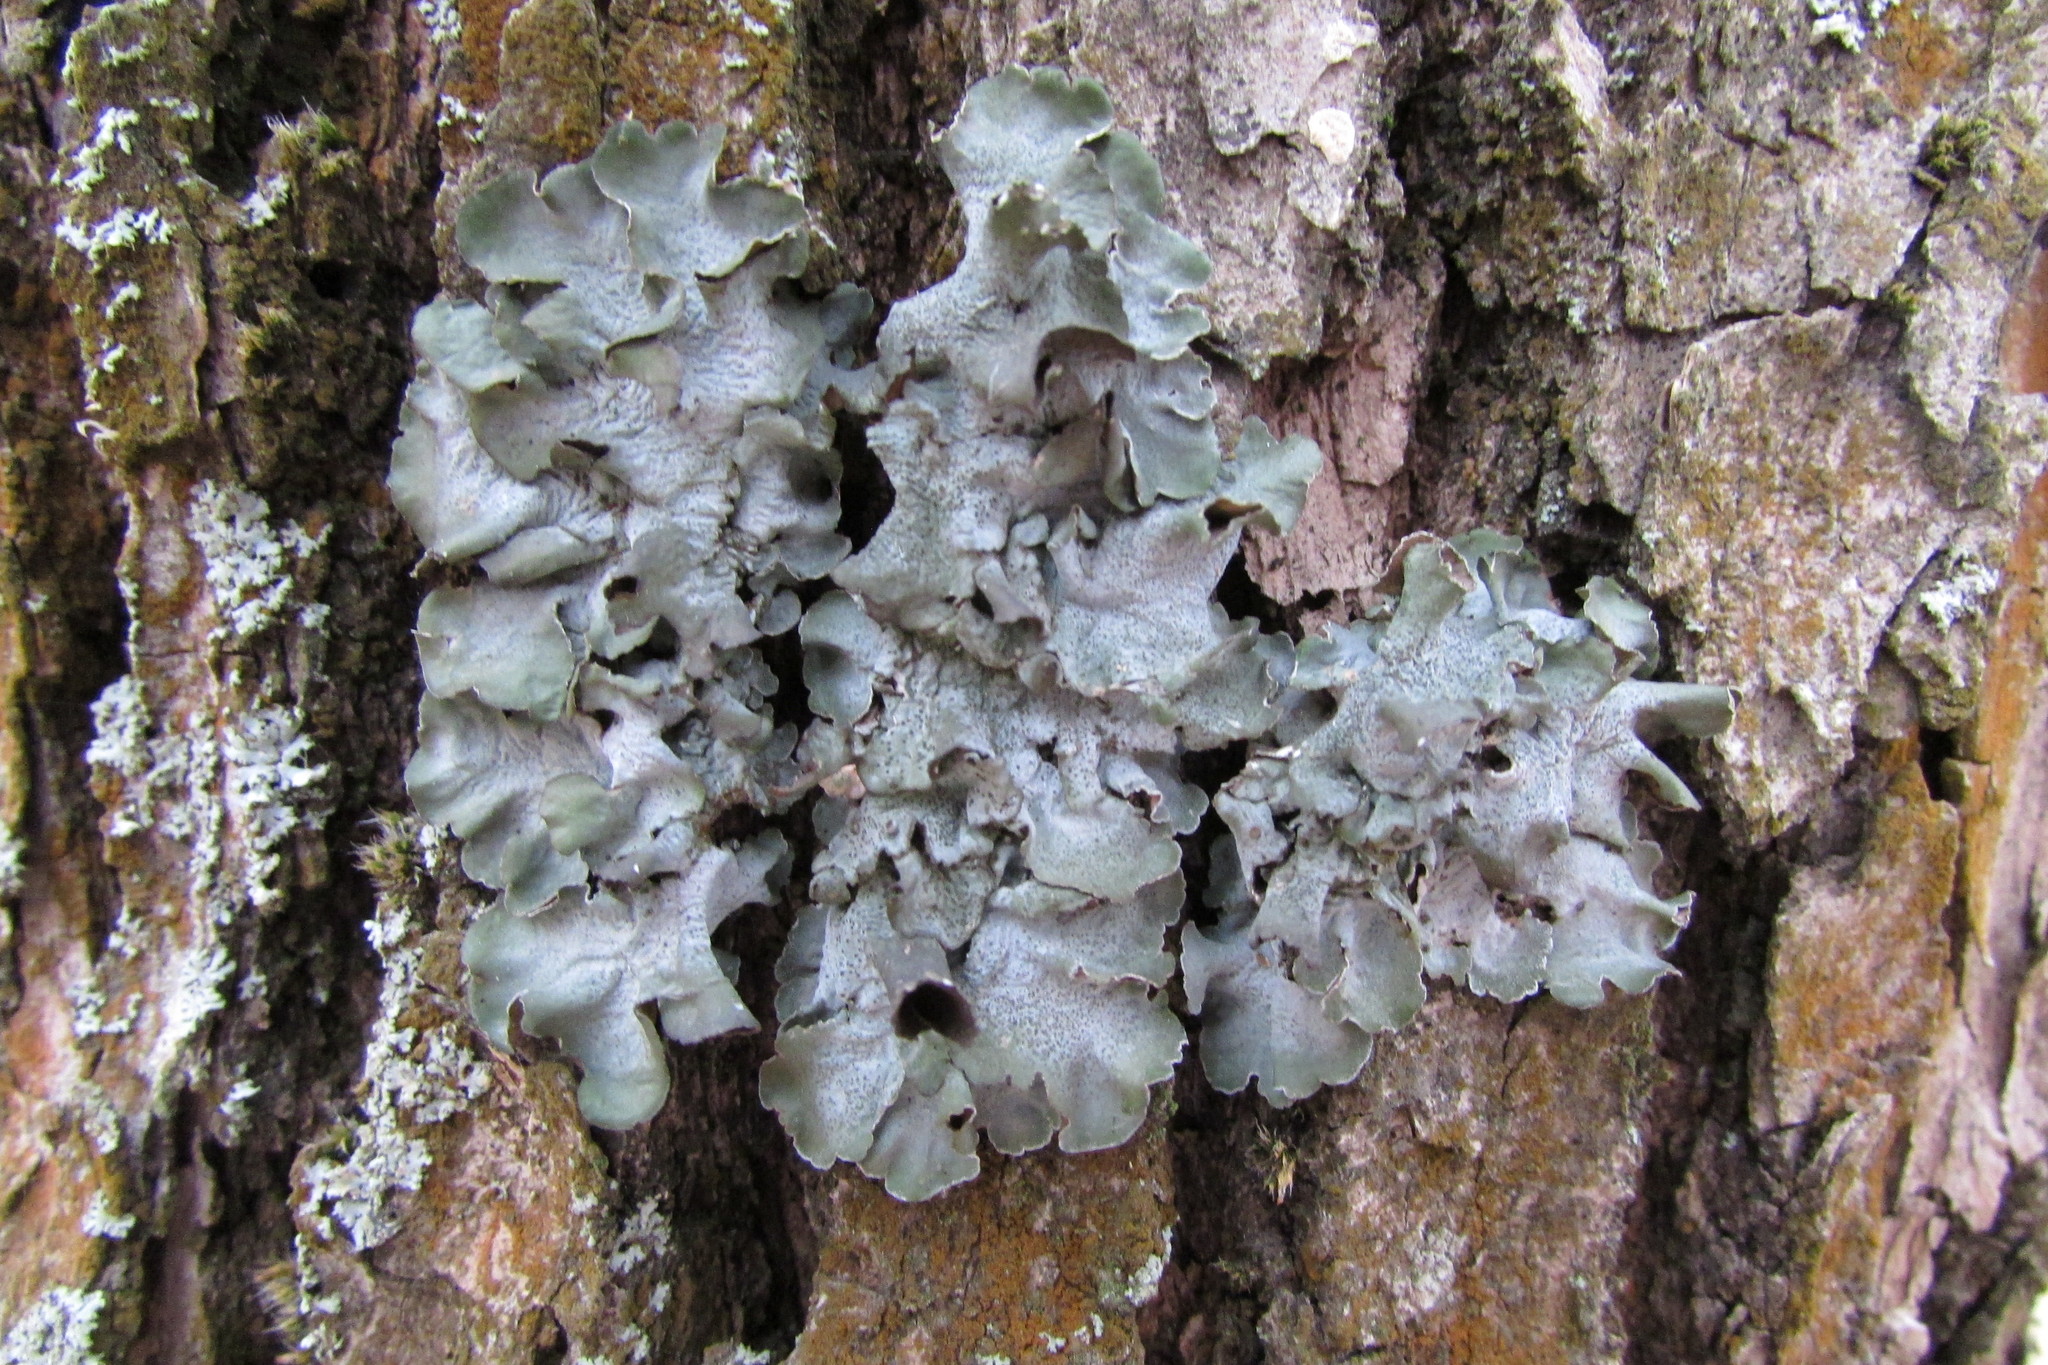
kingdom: Fungi
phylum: Ascomycota
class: Lecanoromycetes
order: Lecanorales
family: Parmeliaceae
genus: Pleurosticta
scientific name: Pleurosticta acetabulum
